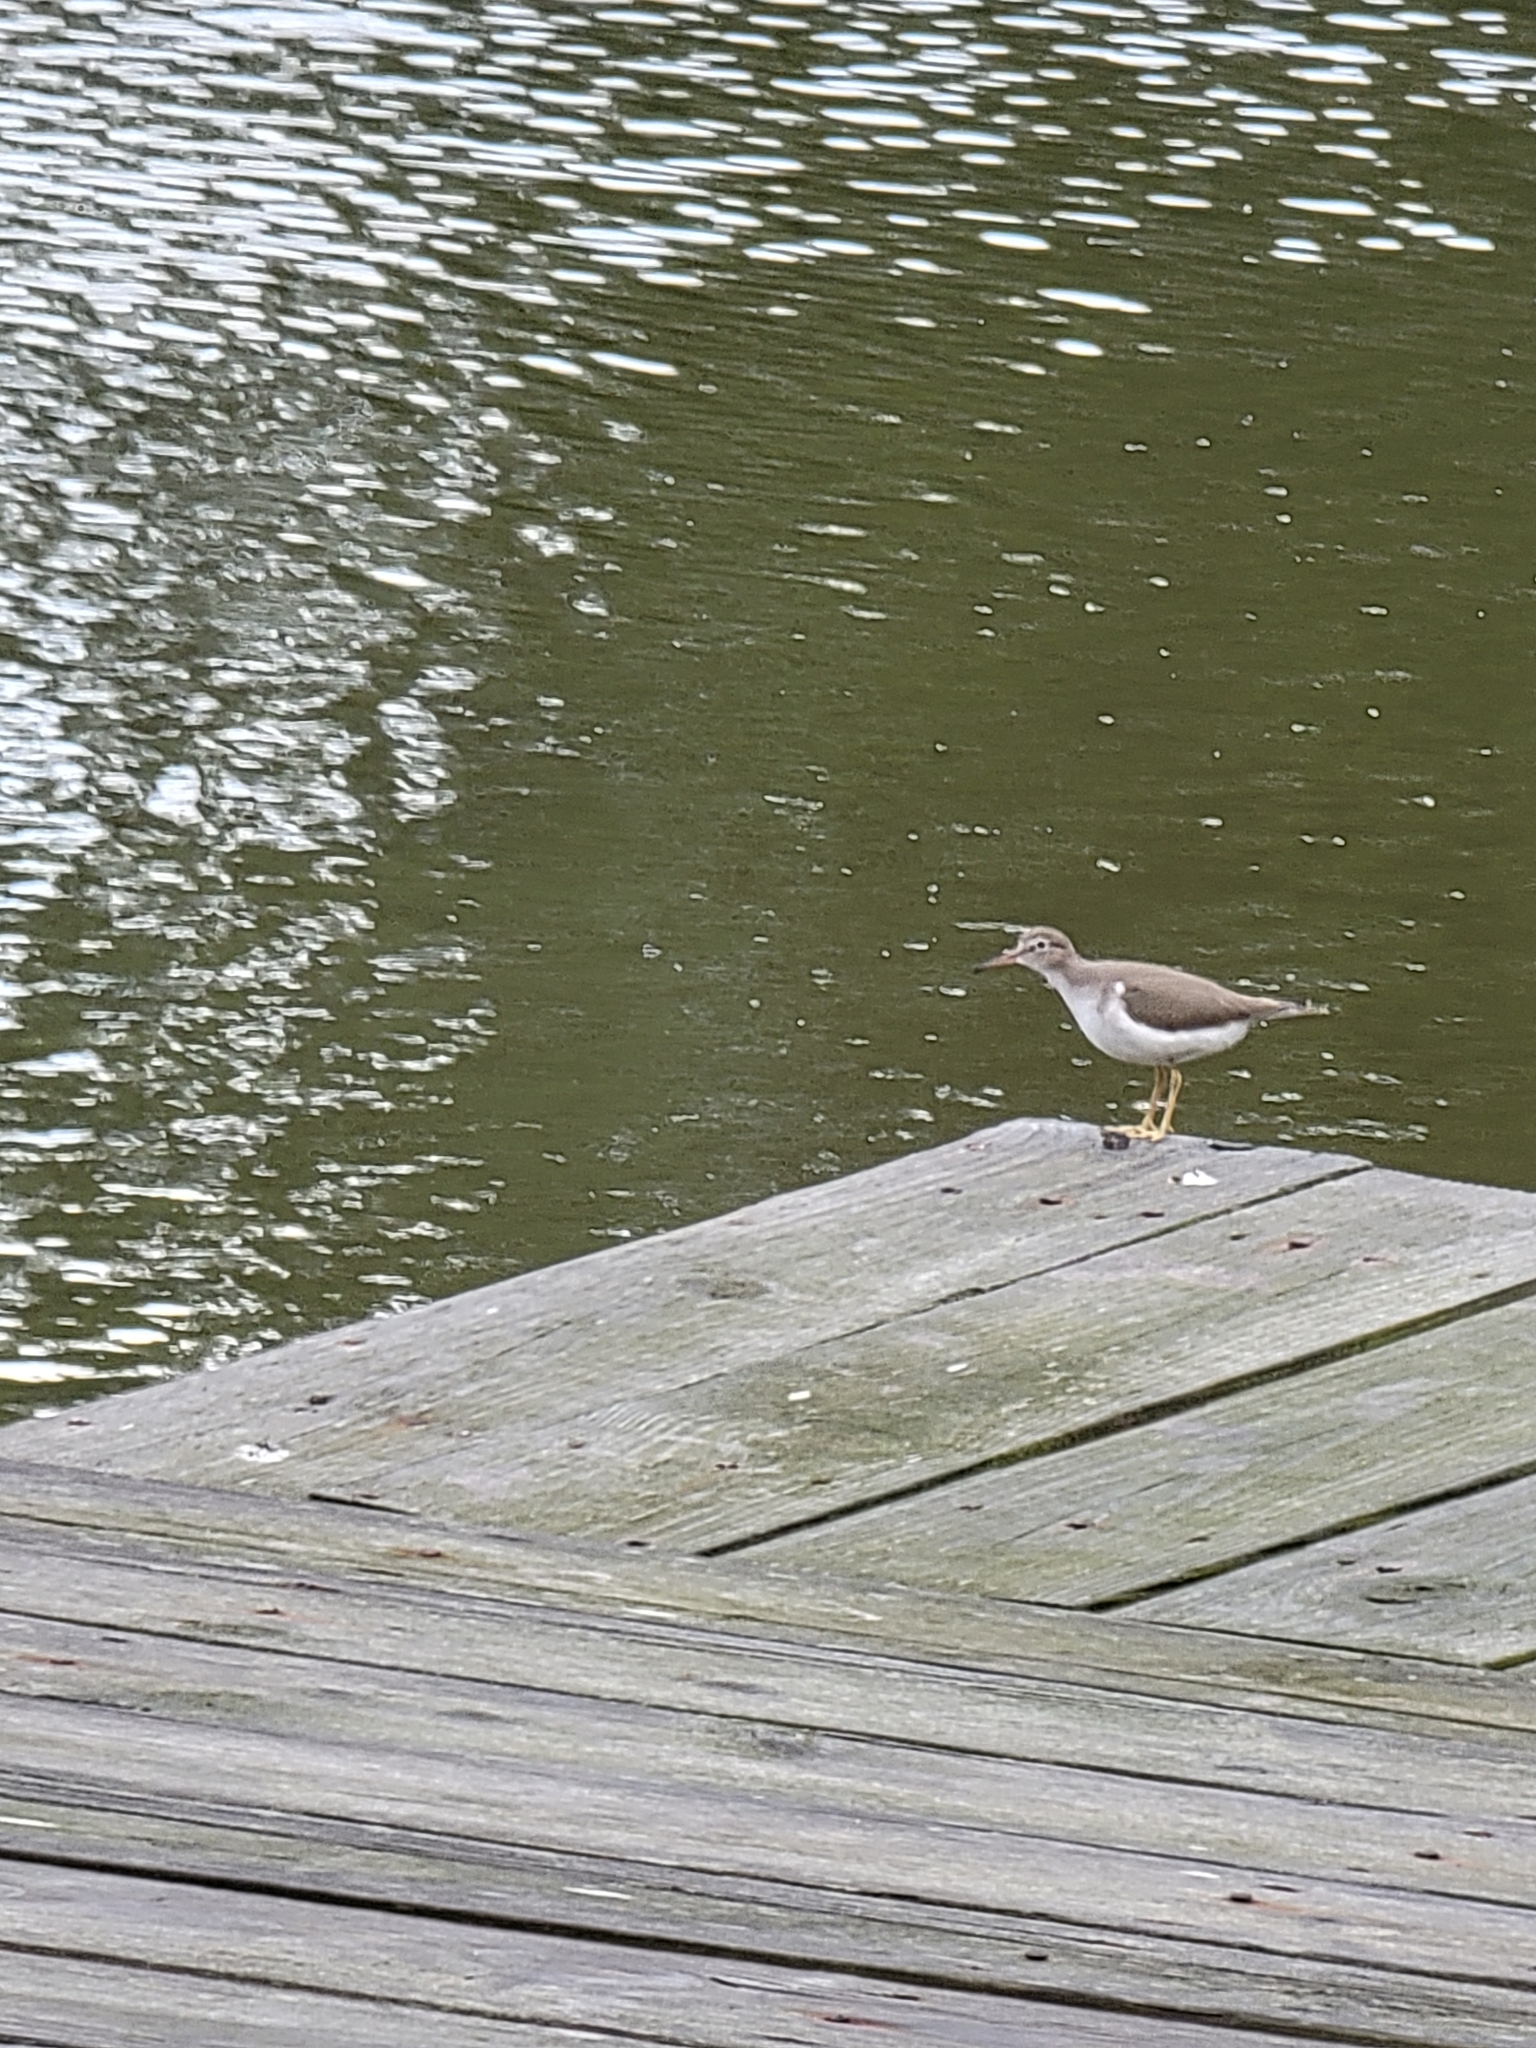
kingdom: Animalia
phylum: Chordata
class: Aves
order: Charadriiformes
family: Scolopacidae
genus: Actitis
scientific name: Actitis macularius
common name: Spotted sandpiper
